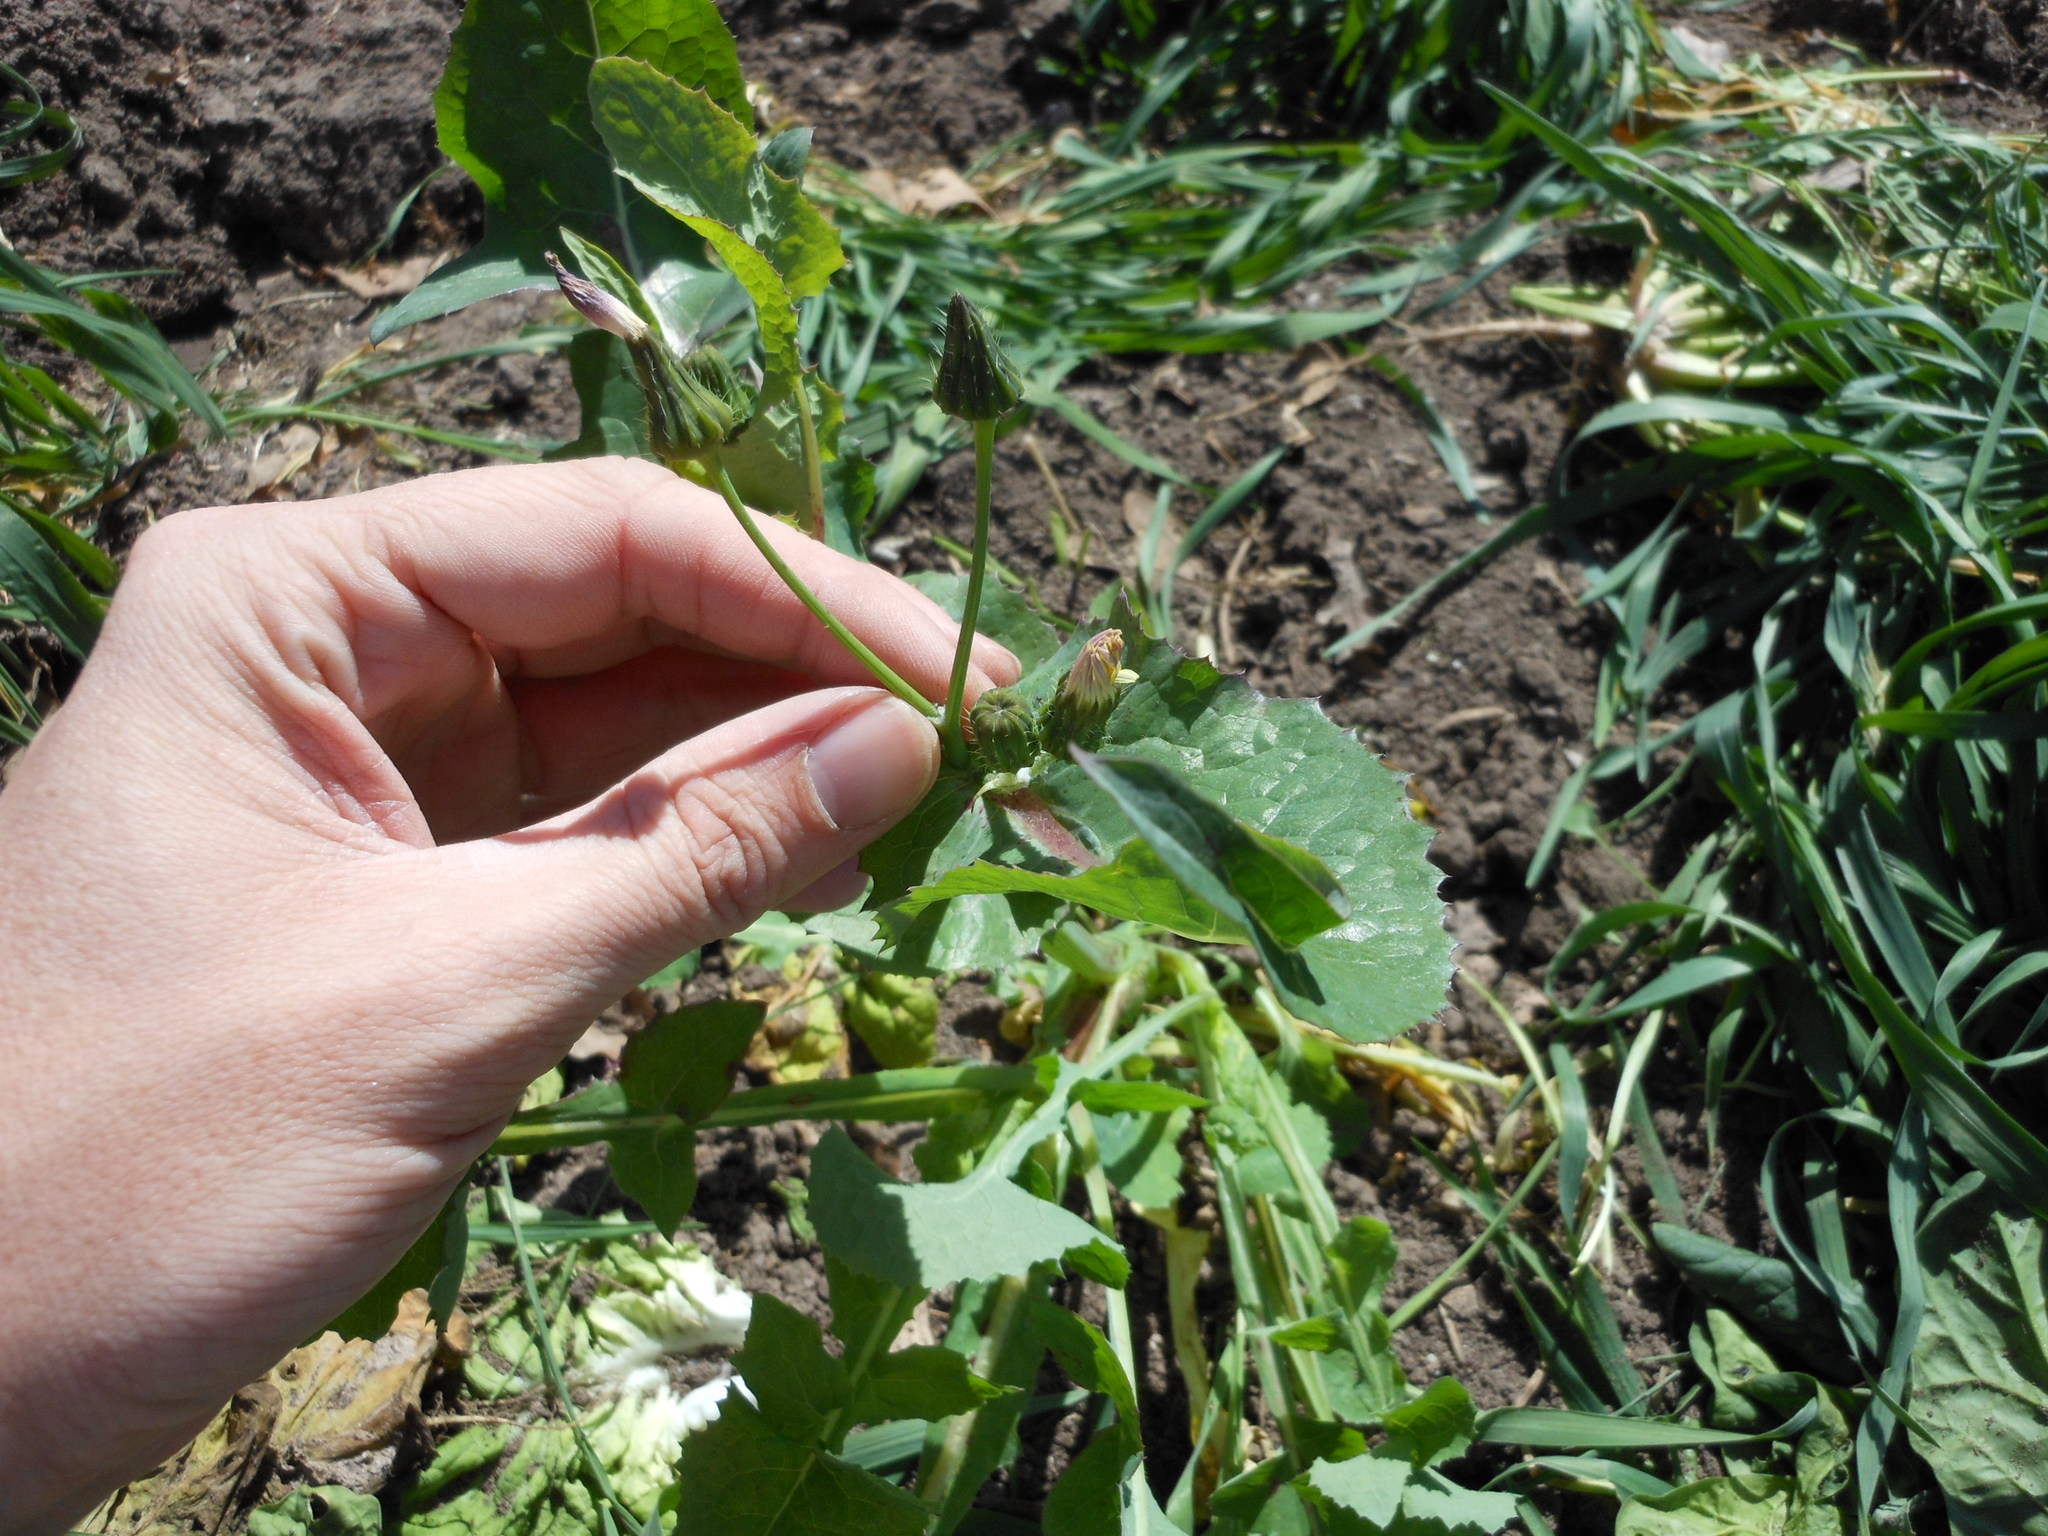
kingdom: Plantae
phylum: Tracheophyta
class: Magnoliopsida
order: Asterales
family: Asteraceae
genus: Sonchus
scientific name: Sonchus oleraceus
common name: Common sowthistle
